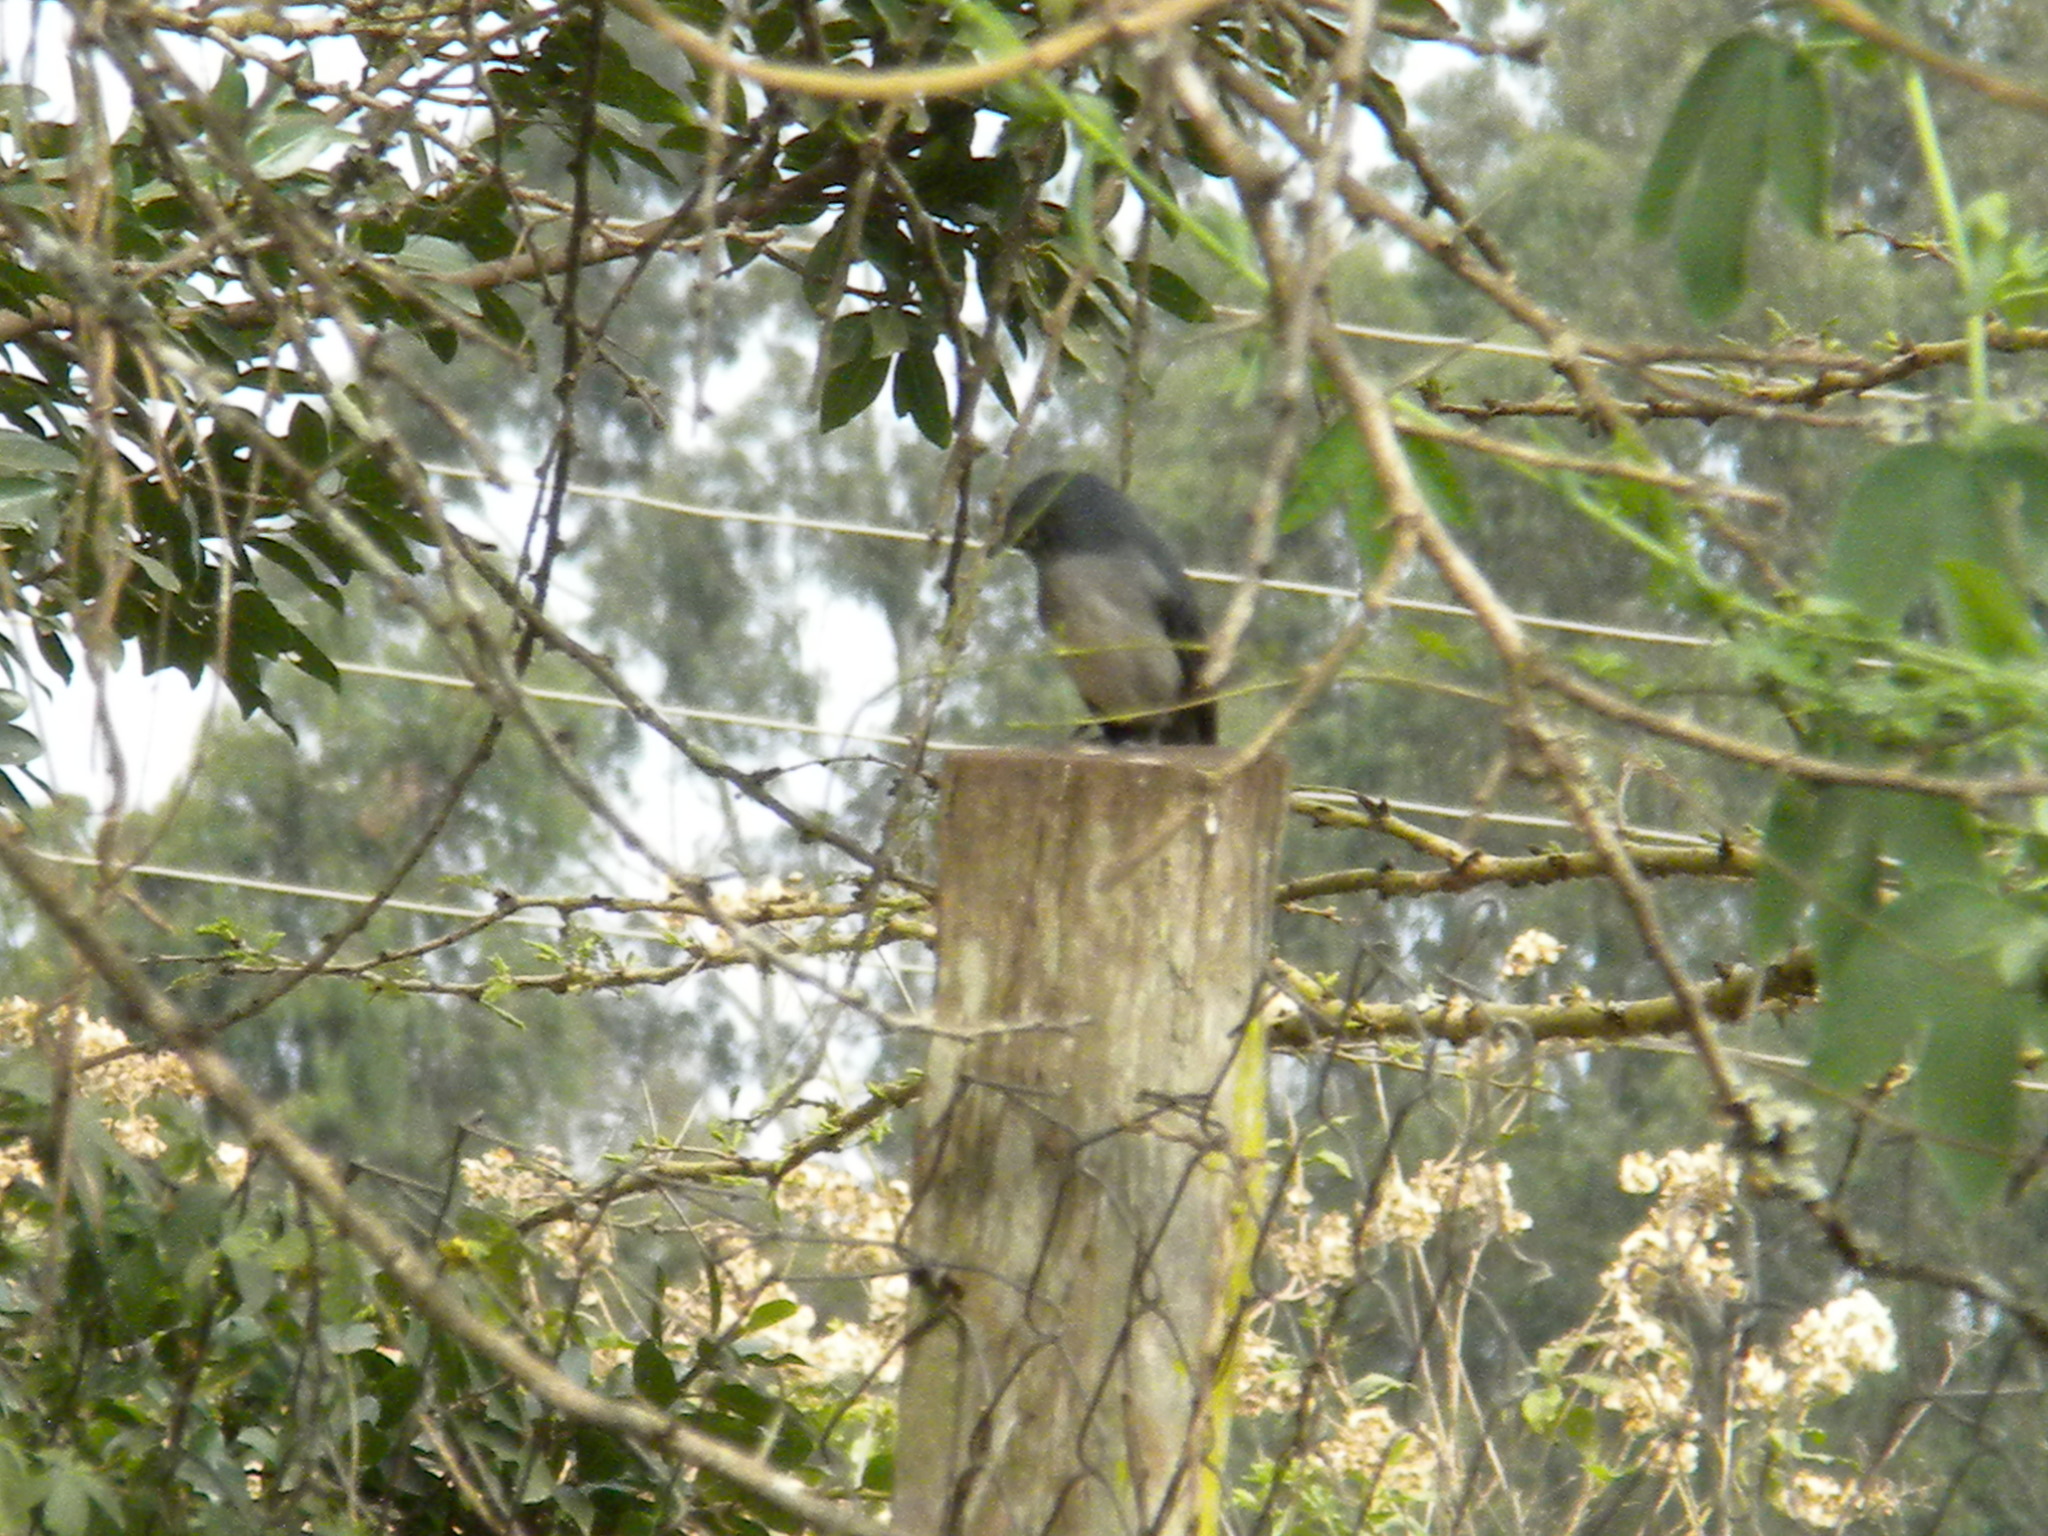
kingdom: Animalia
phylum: Chordata
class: Aves
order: Passeriformes
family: Muscicapidae
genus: Dioptrornis
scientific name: Dioptrornis fischeri
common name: White-eyed slaty flycatcher
